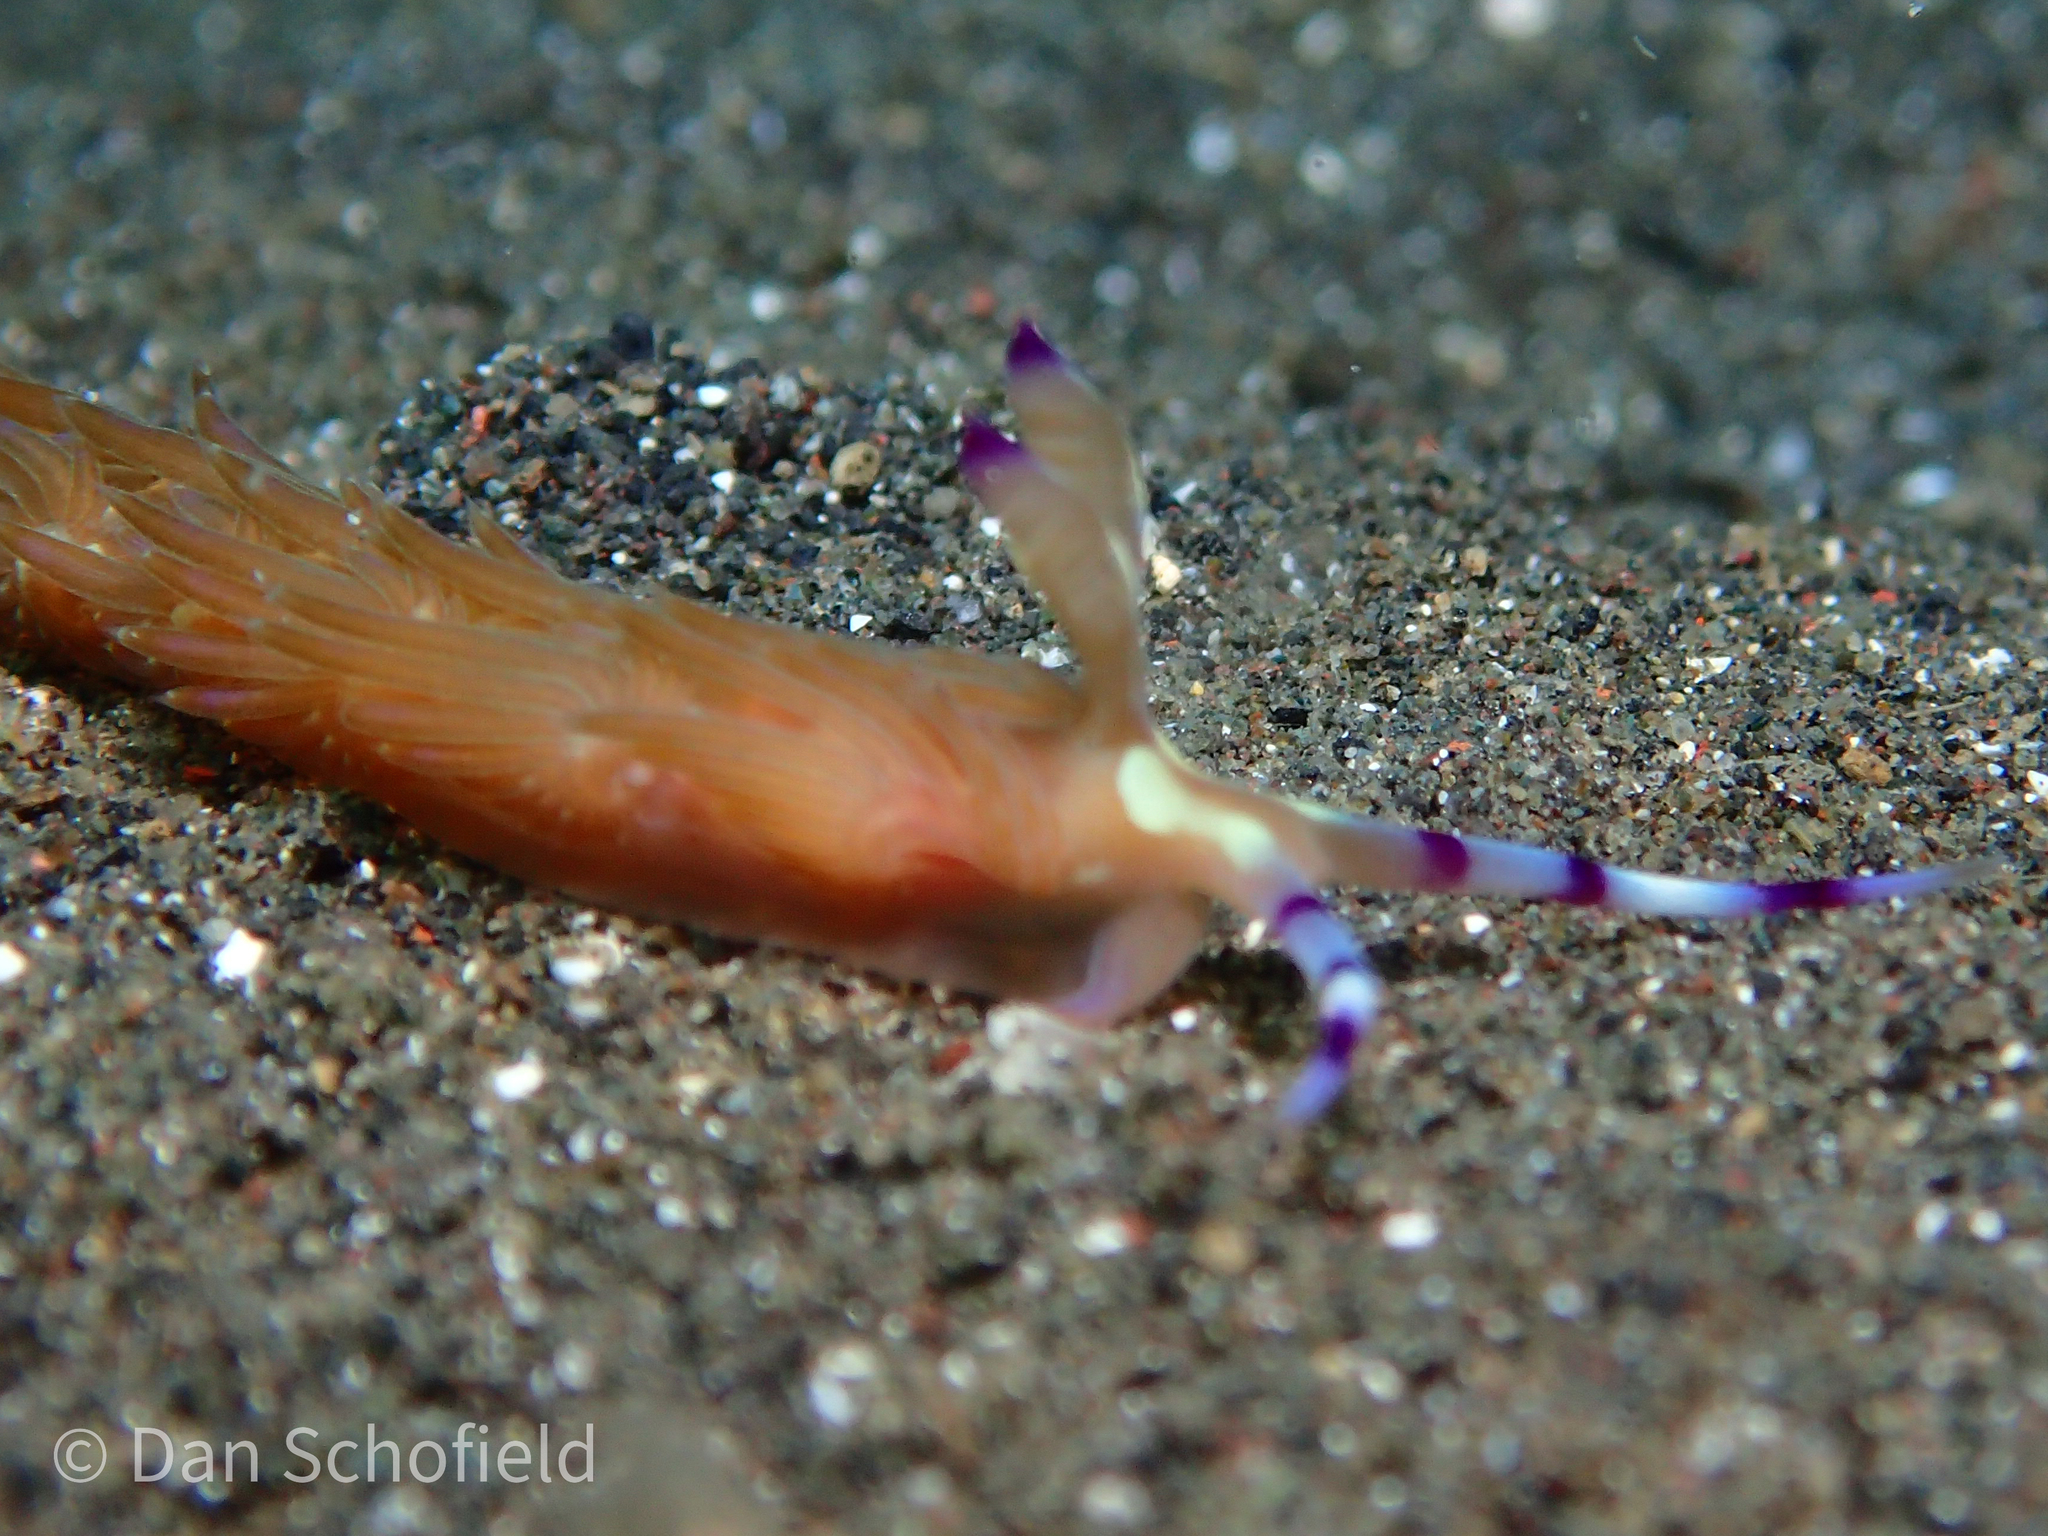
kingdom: Animalia
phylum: Mollusca
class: Gastropoda
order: Nudibranchia
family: Facelinidae
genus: Pteraeolidia
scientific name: Pteraeolidia semperi
